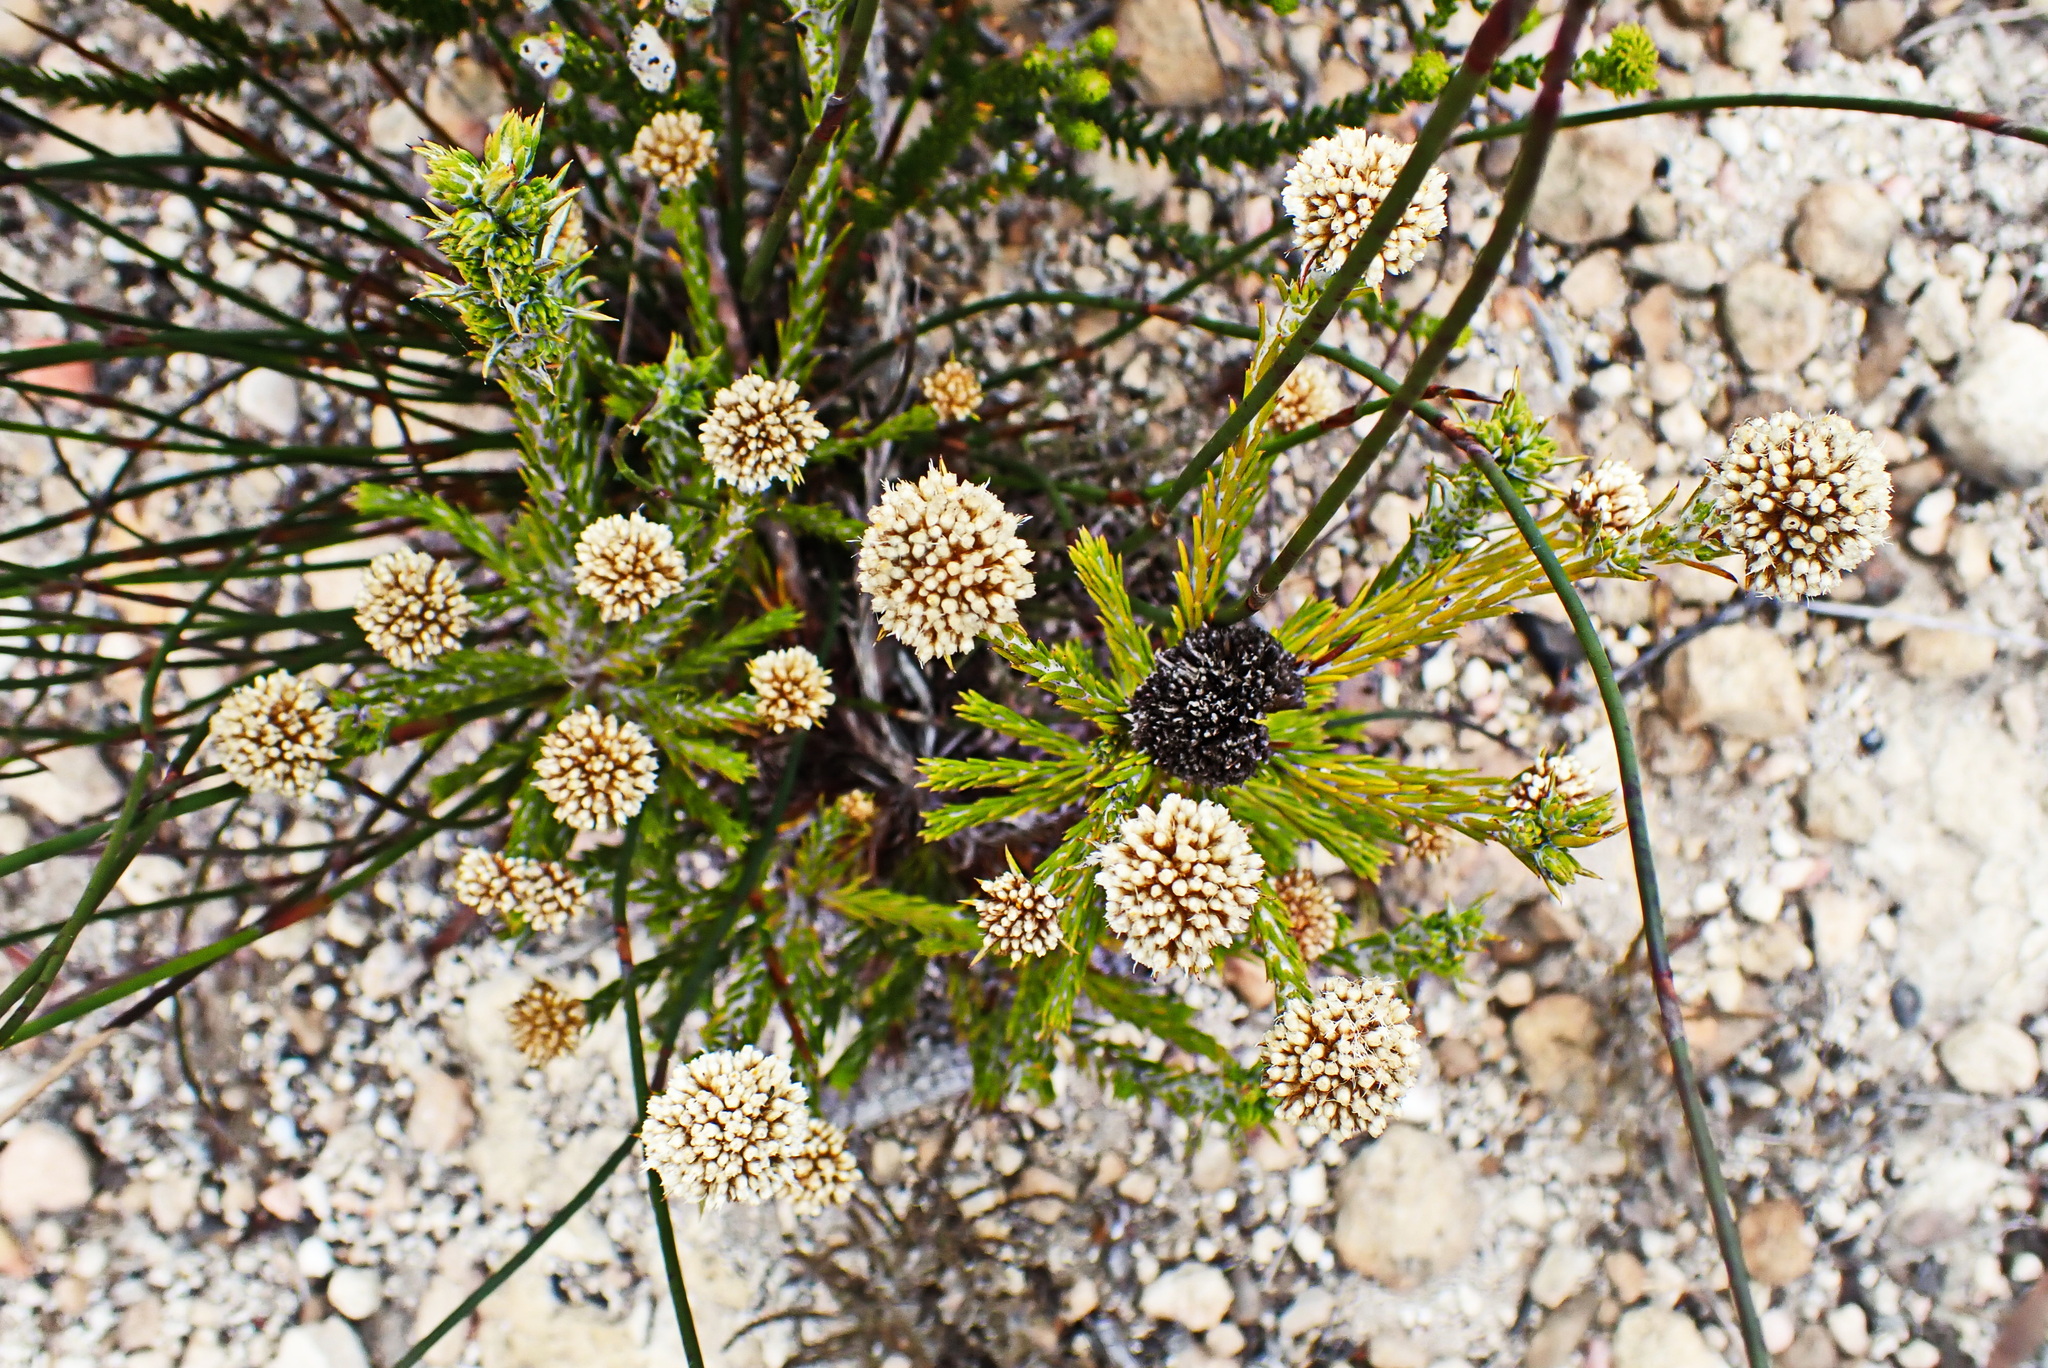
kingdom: Plantae
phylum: Tracheophyta
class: Magnoliopsida
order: Asterales
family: Asteraceae
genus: Metalasia
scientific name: Metalasia erectifolia
